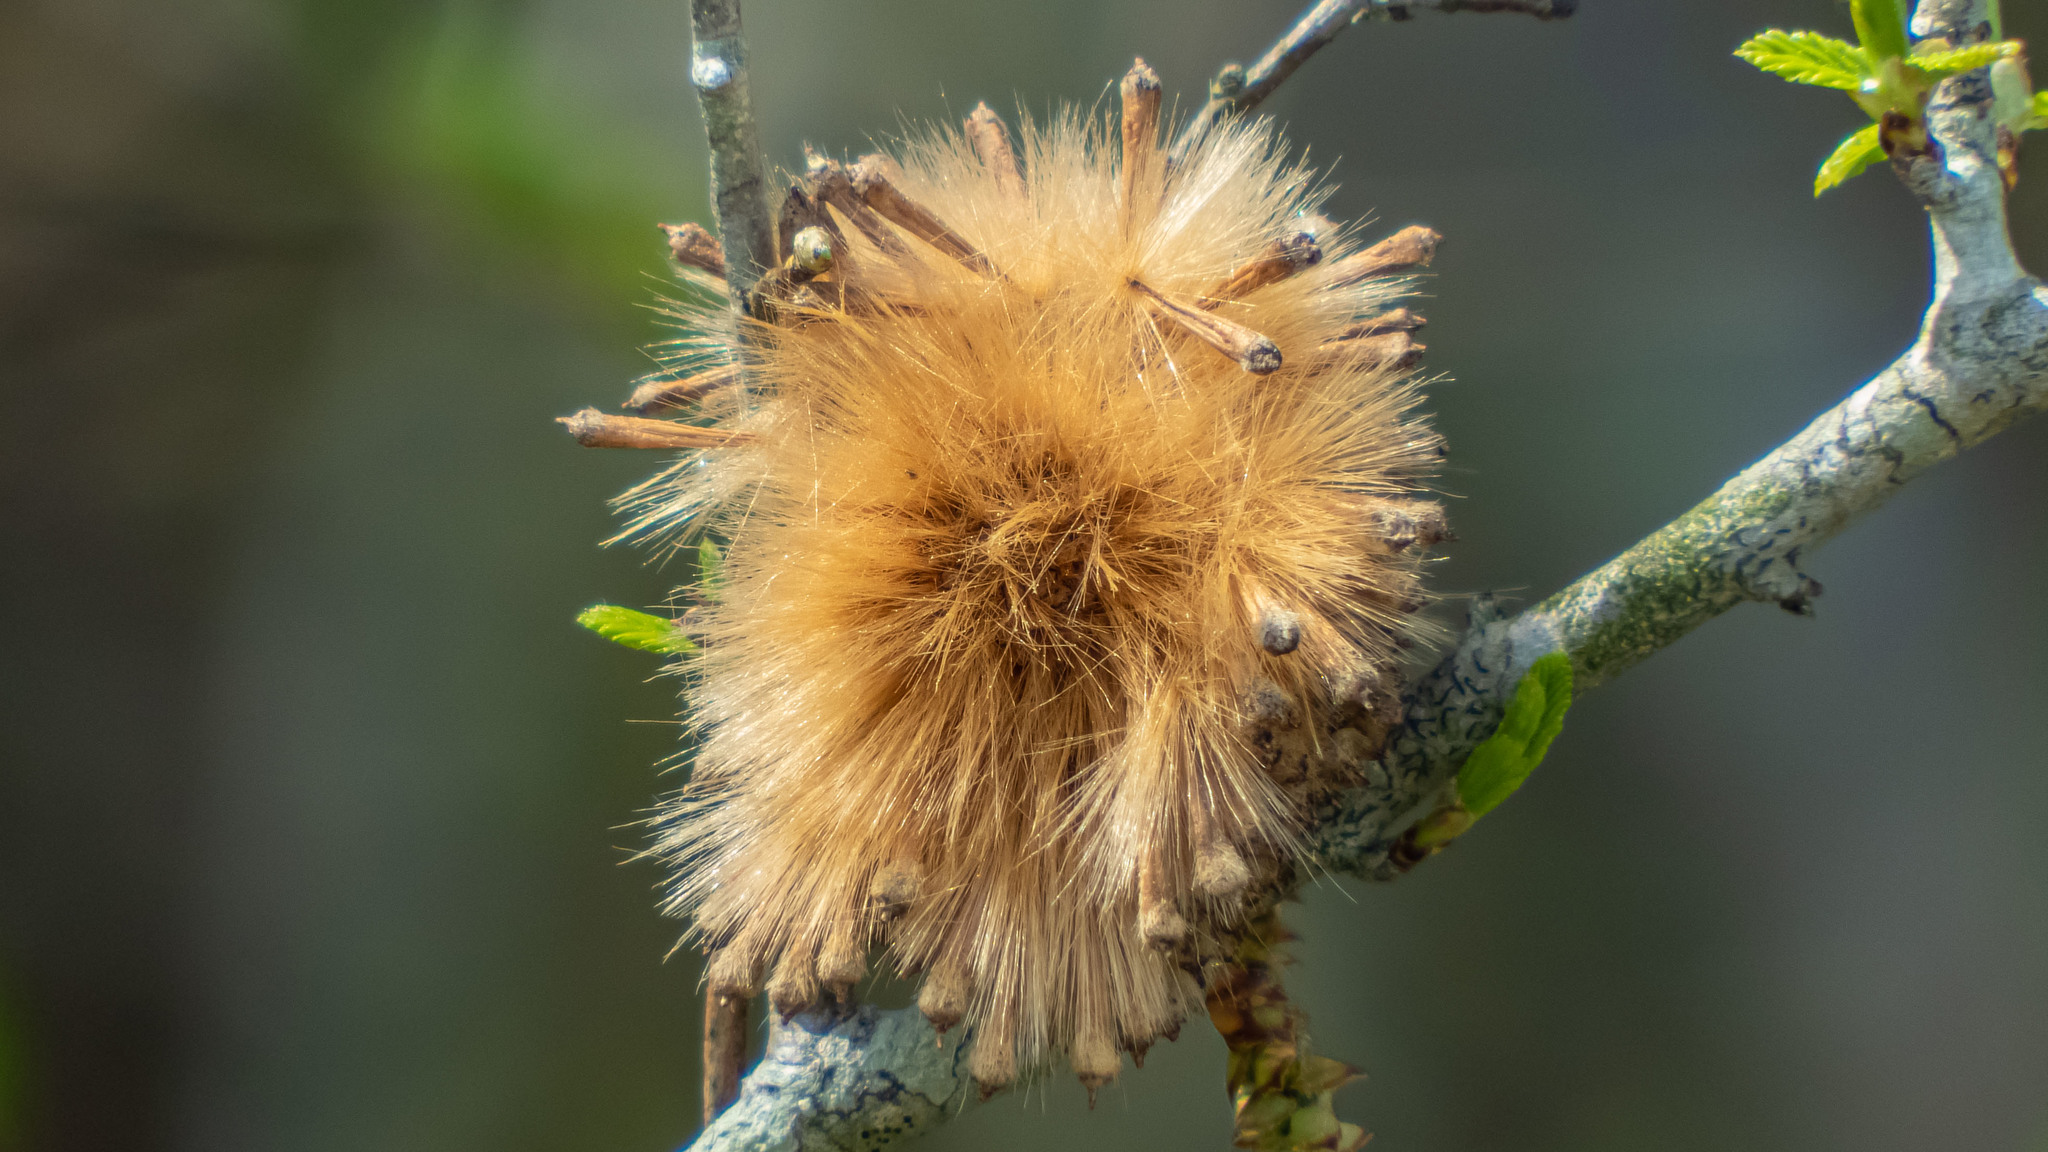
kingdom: Plantae
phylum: Tracheophyta
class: Magnoliopsida
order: Proteales
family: Platanaceae
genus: Platanus
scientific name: Platanus occidentalis
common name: American sycamore
